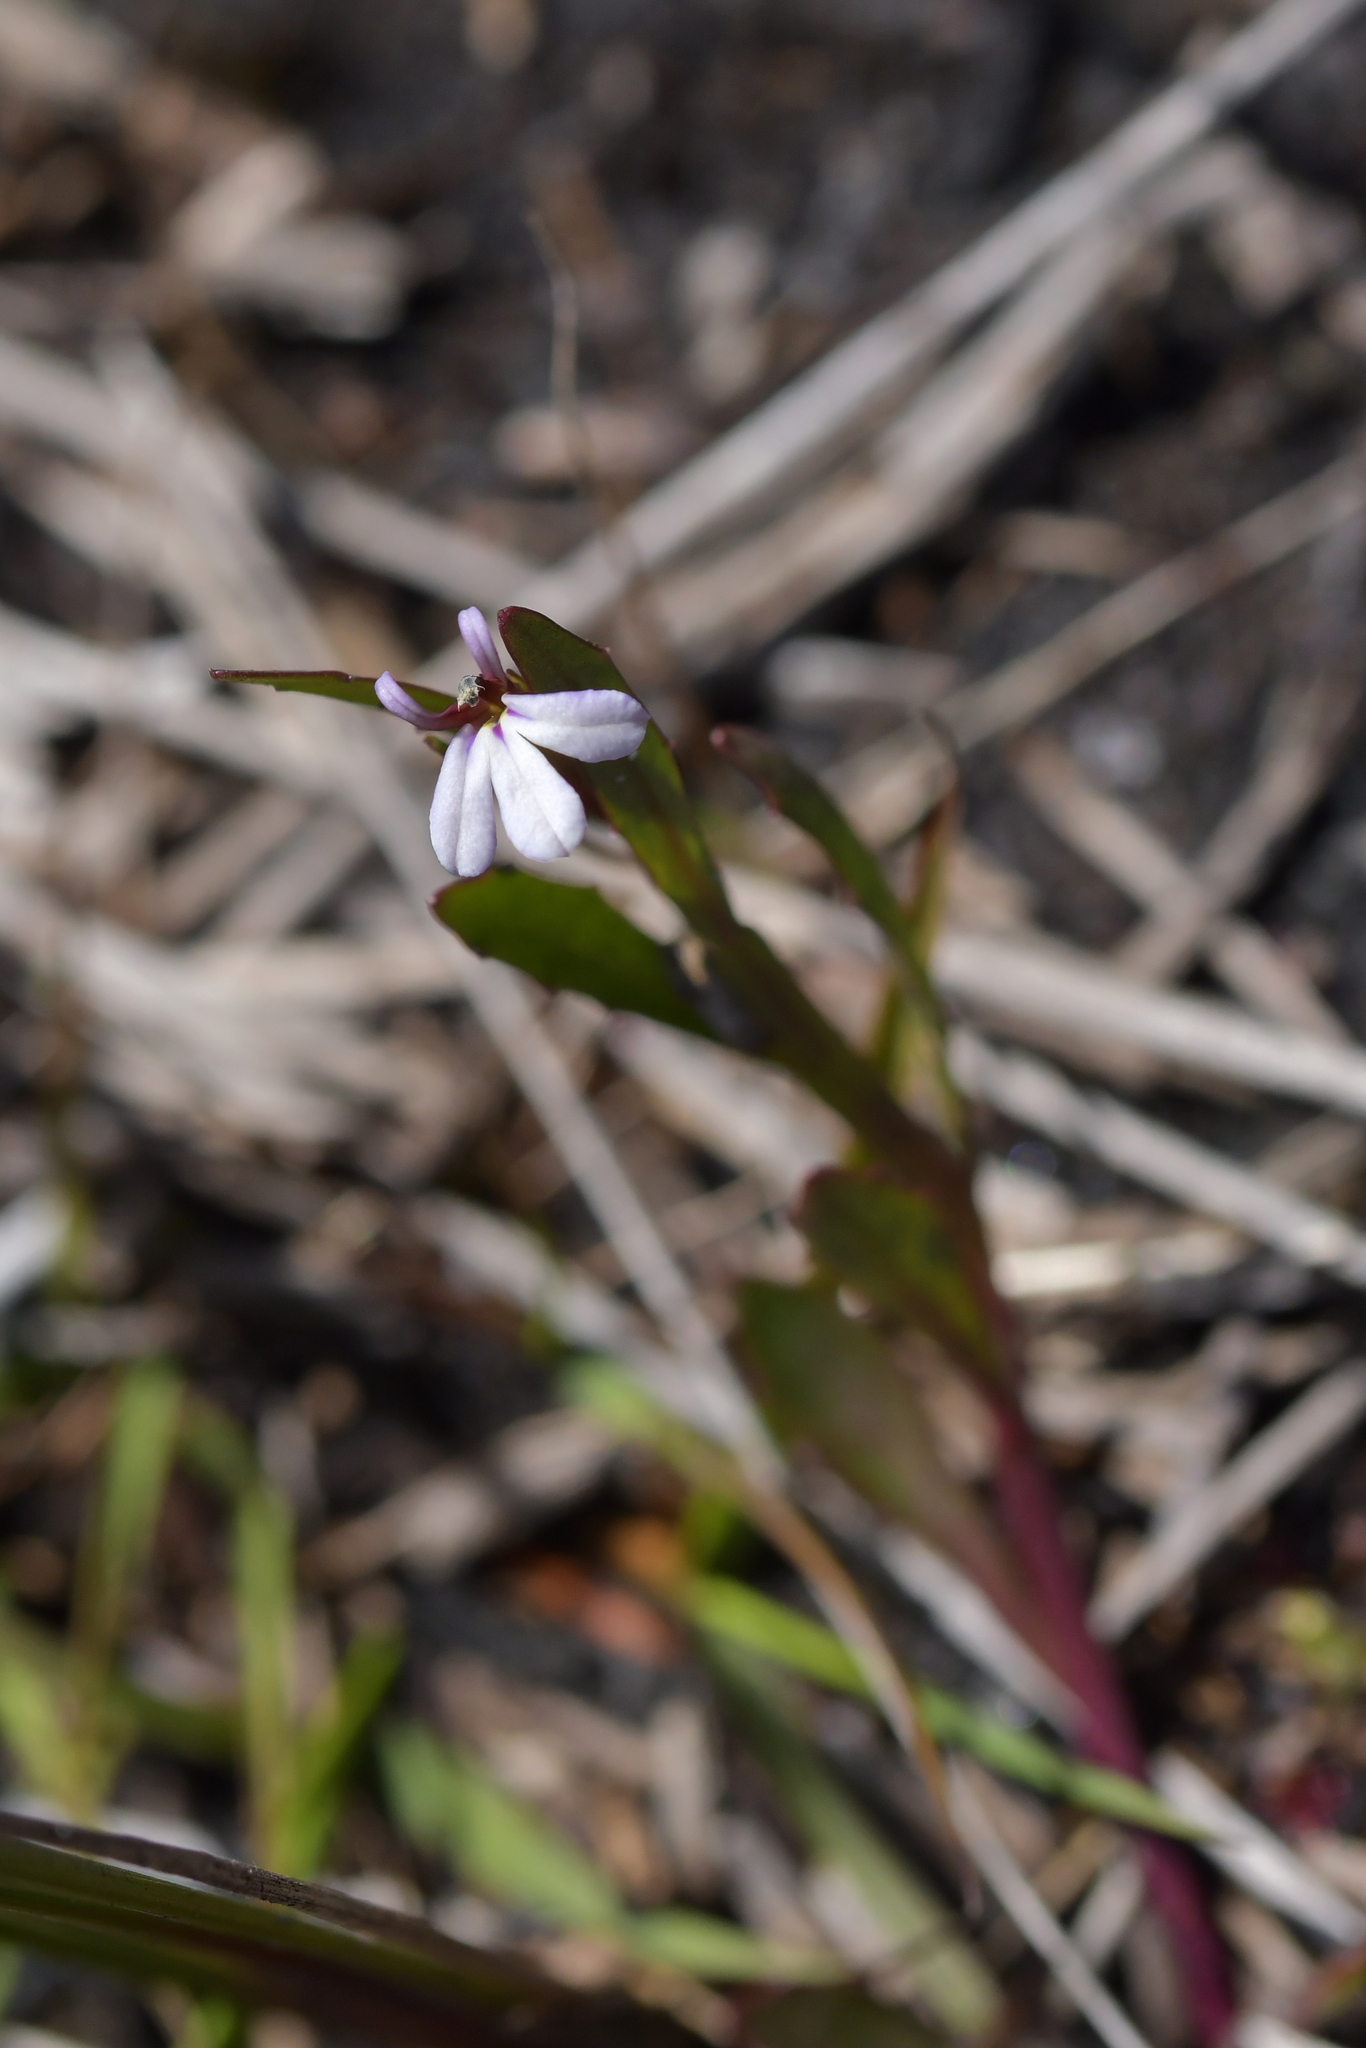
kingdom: Plantae
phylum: Tracheophyta
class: Magnoliopsida
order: Asterales
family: Campanulaceae
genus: Lobelia
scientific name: Lobelia anceps
